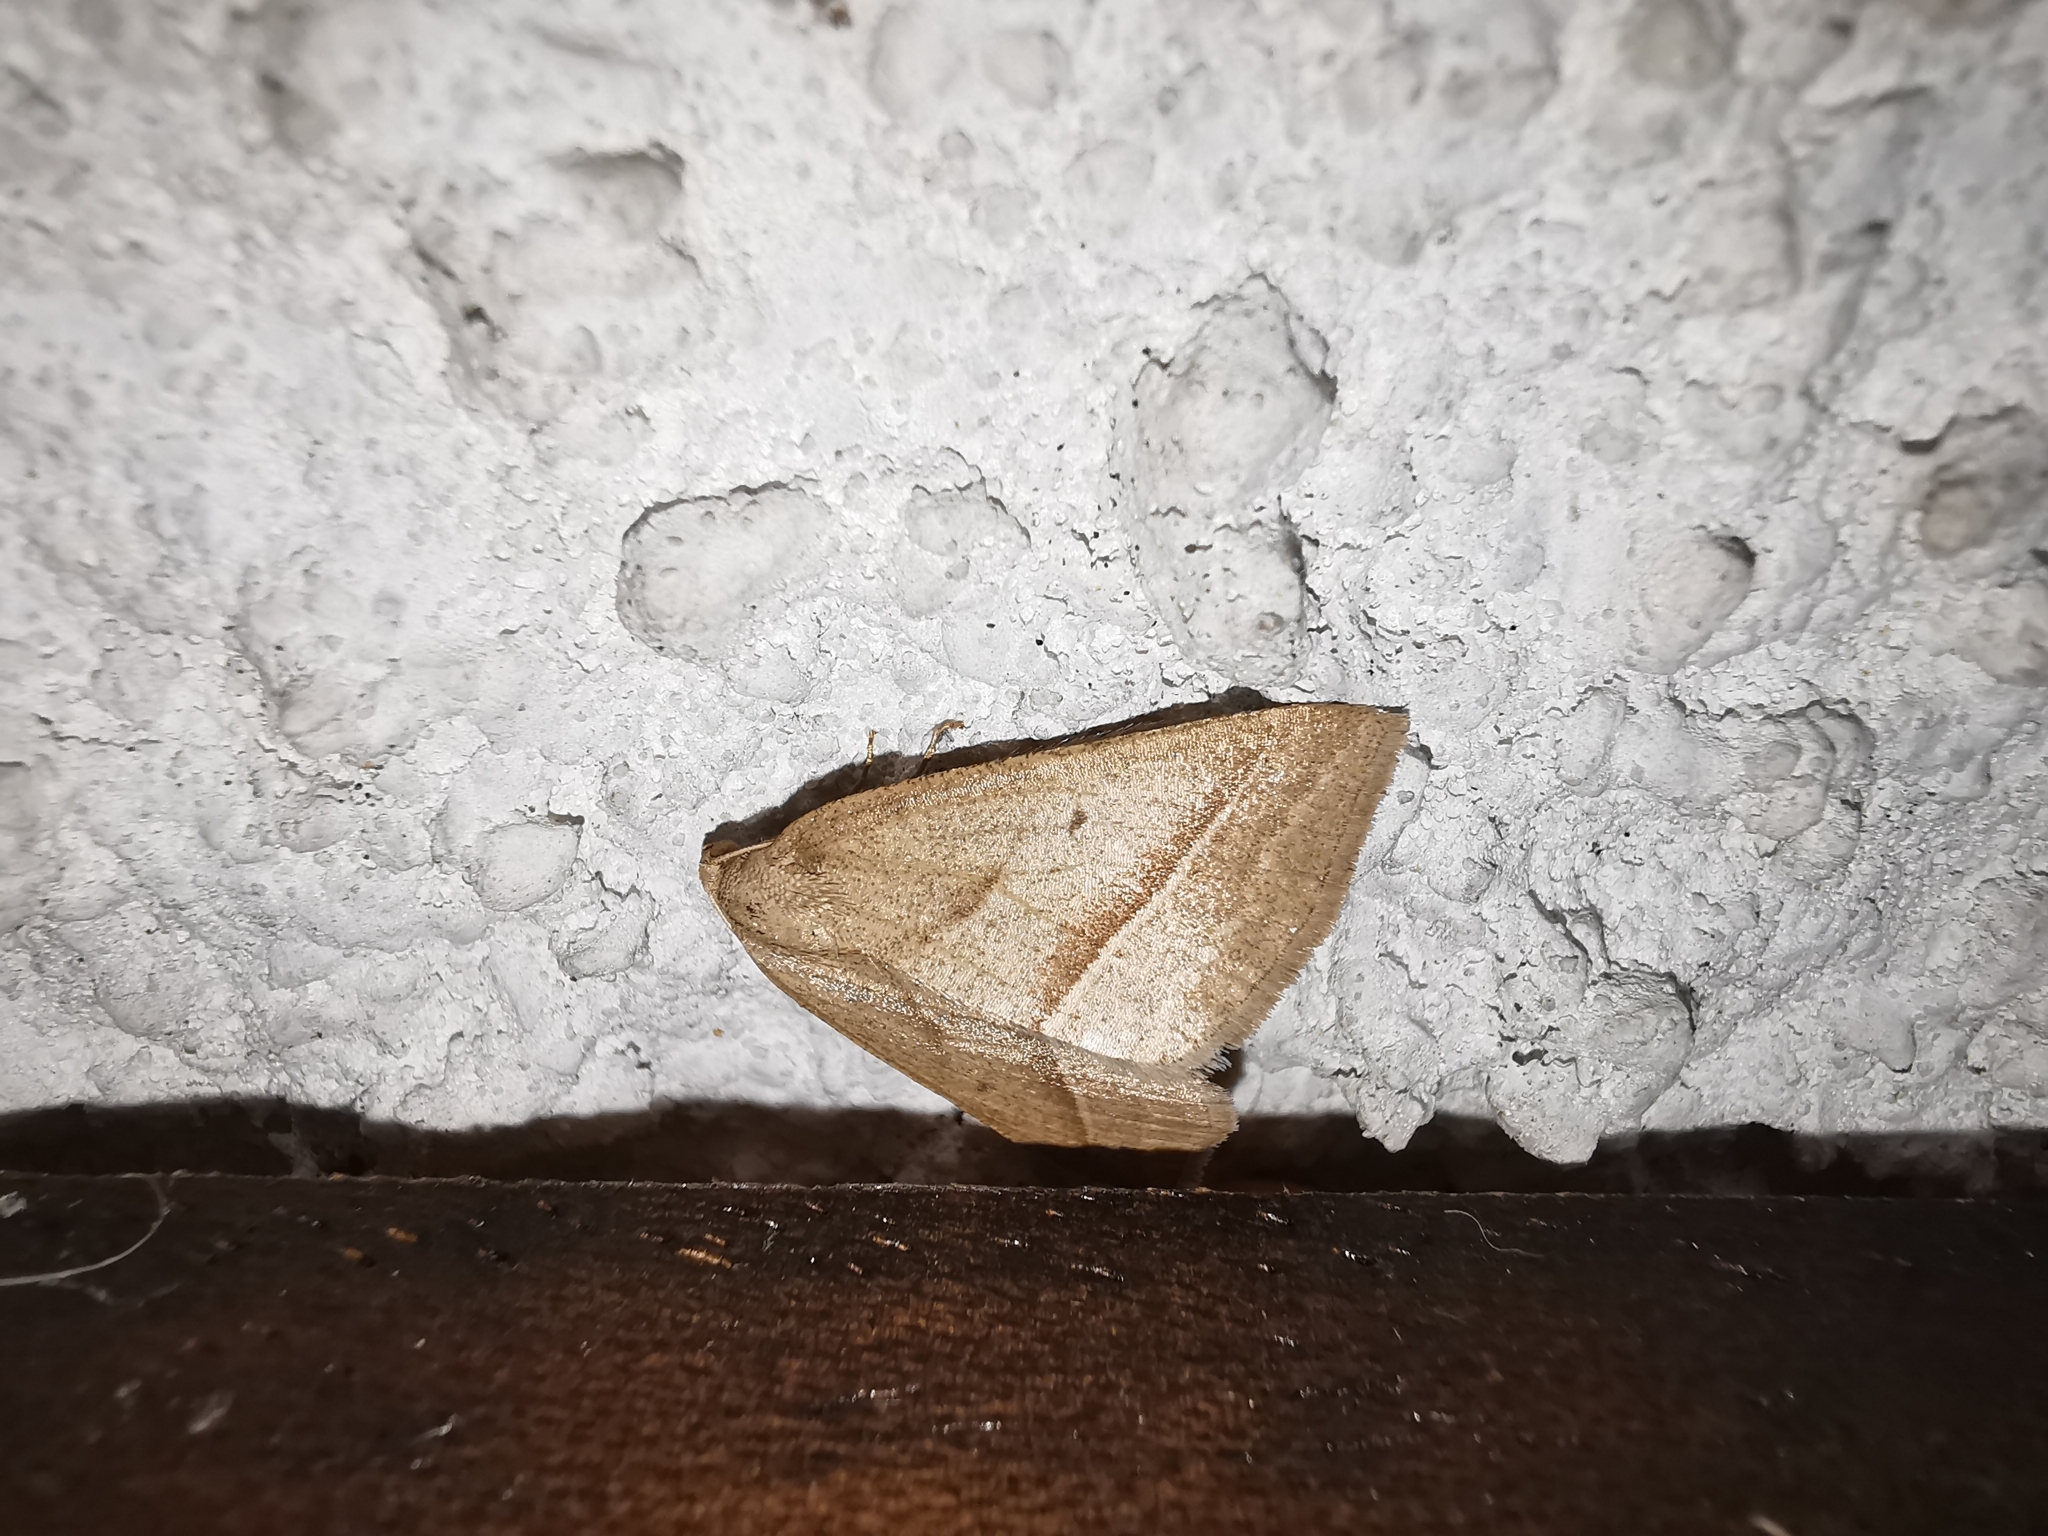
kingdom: Animalia
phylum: Arthropoda
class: Insecta
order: Lepidoptera
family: Pterophoridae
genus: Pterophorus
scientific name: Pterophorus Petrophora chlorosata
